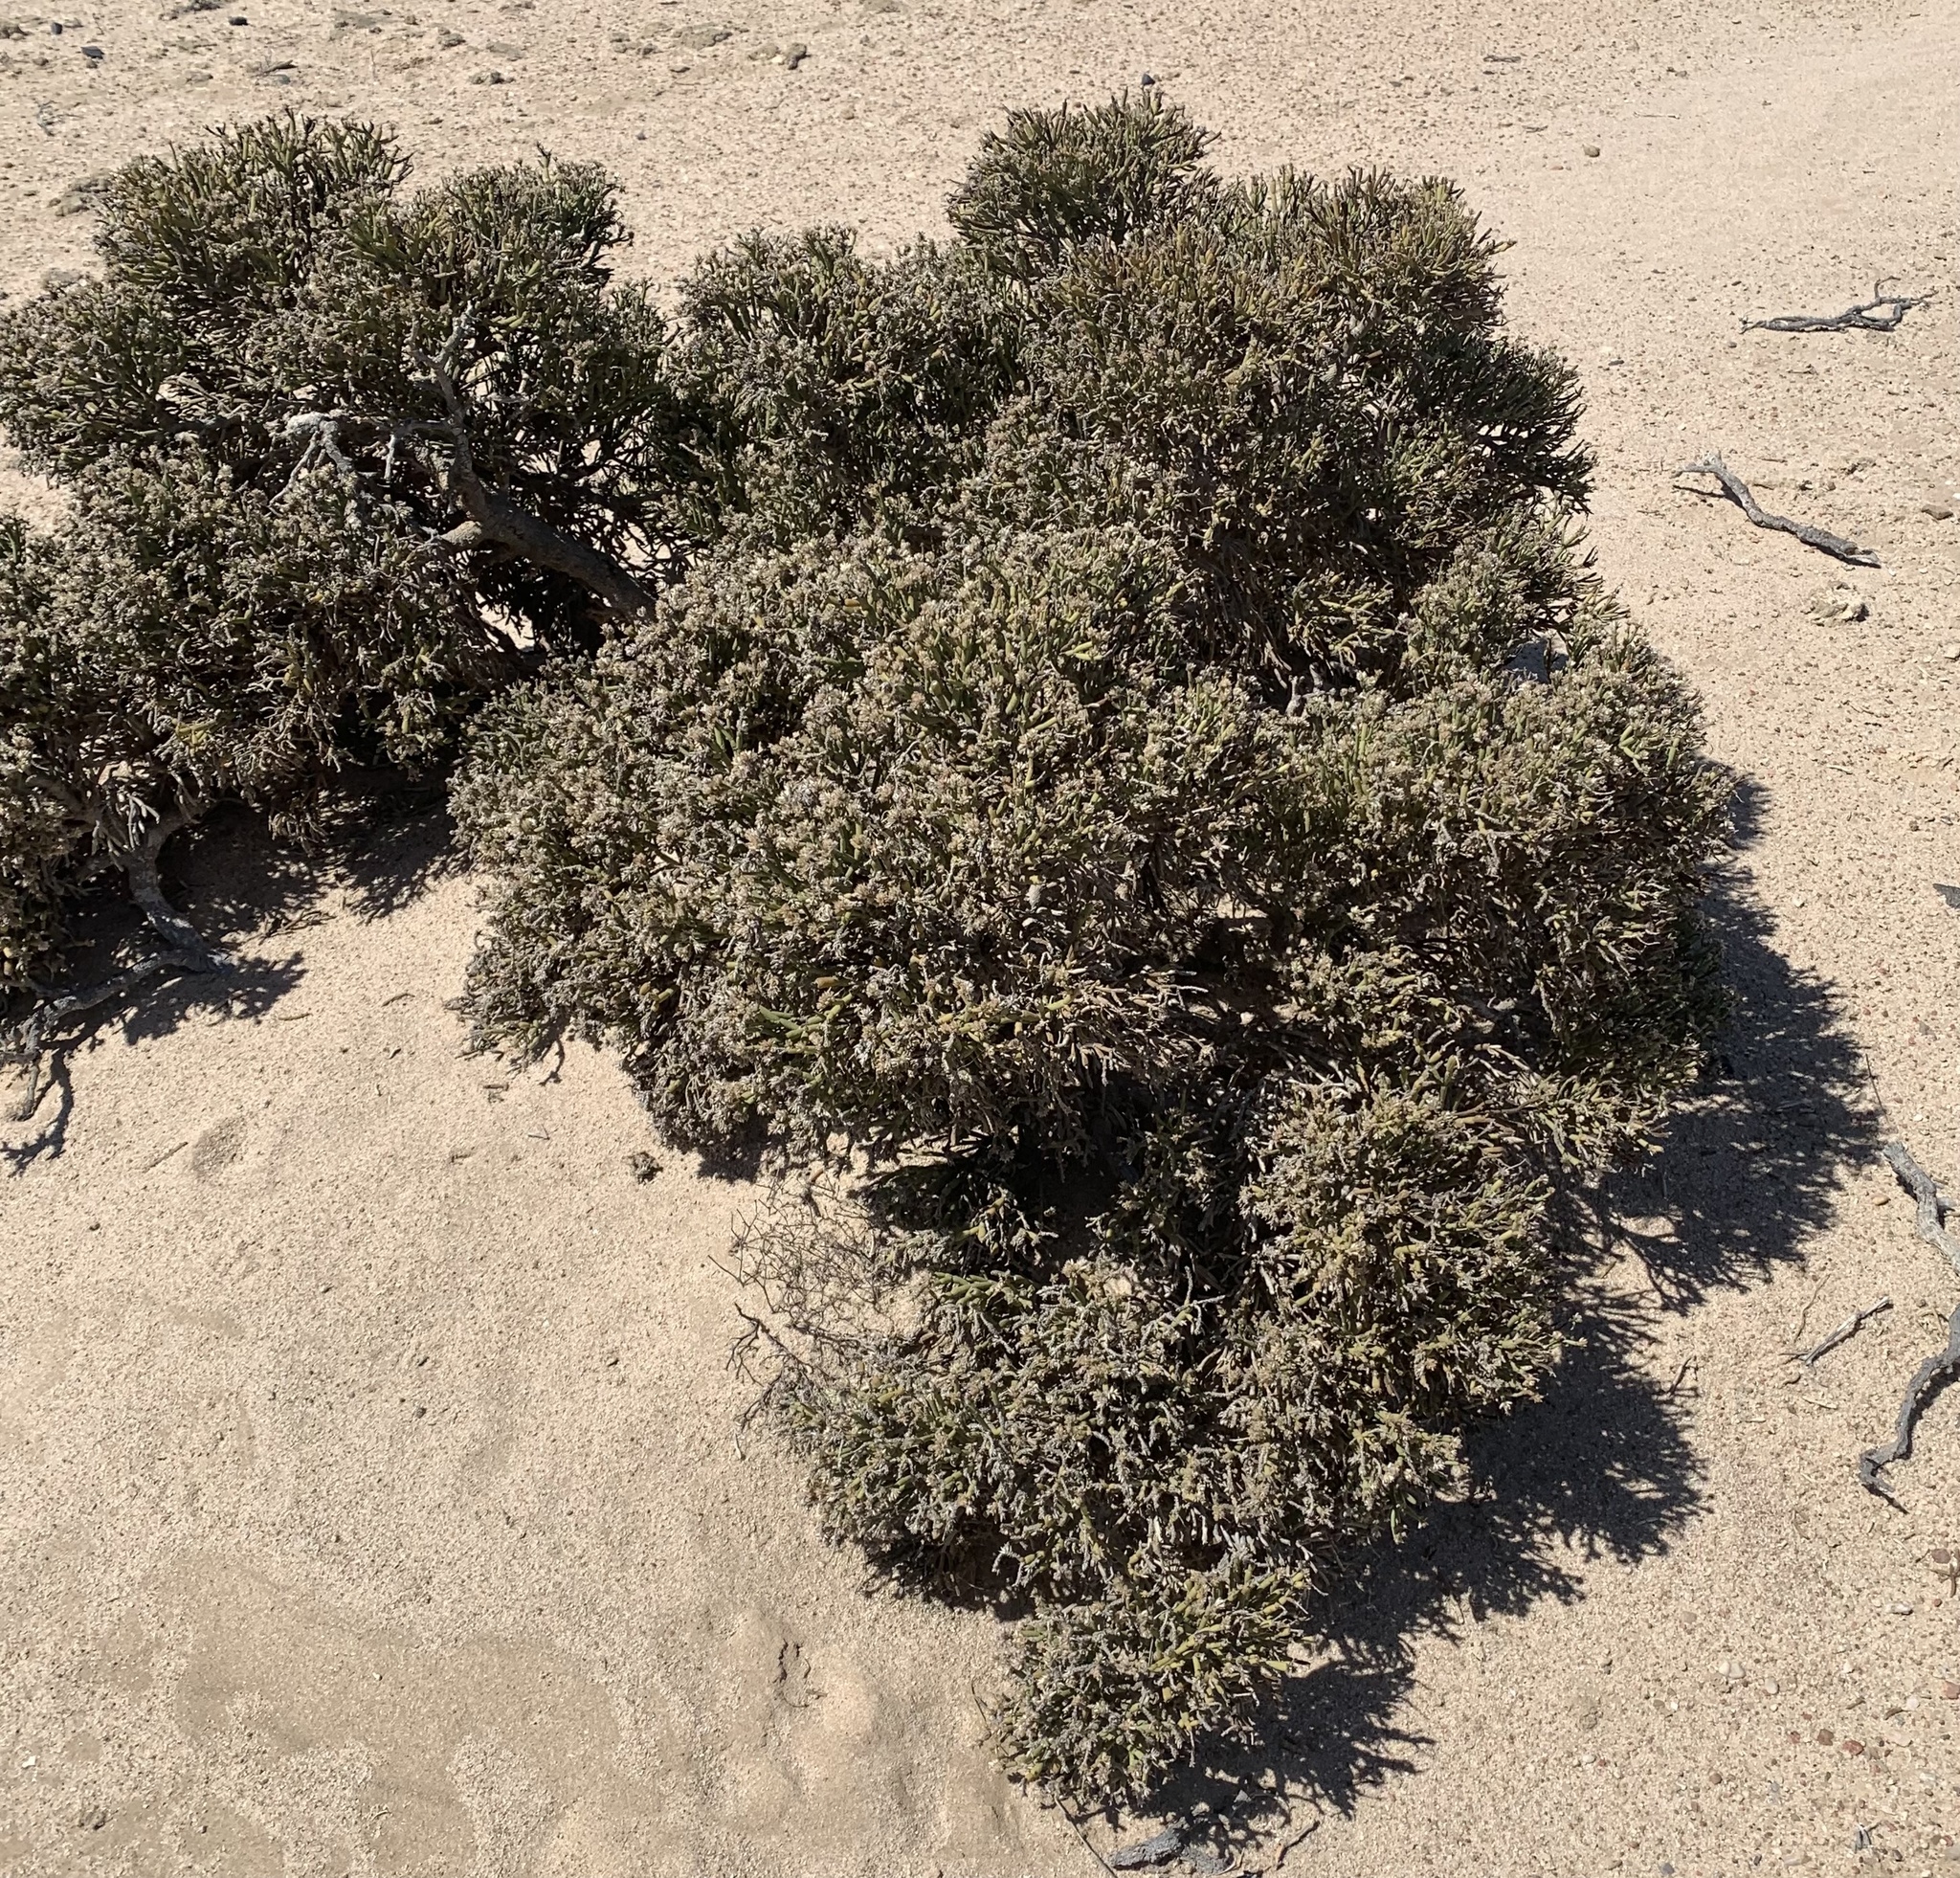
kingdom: Plantae
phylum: Tracheophyta
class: Magnoliopsida
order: Caryophyllales
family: Amaranthaceae
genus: Arthraerva
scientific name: Arthraerva leubnitziae
